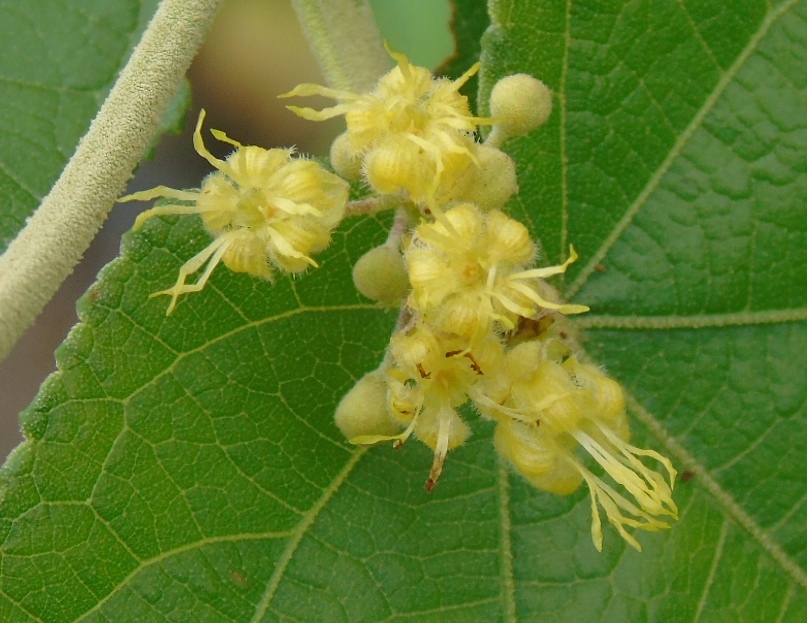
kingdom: Plantae
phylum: Tracheophyta
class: Magnoliopsida
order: Malvales
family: Malvaceae
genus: Guazuma
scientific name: Guazuma ulmifolia
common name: Bastard-cedar
